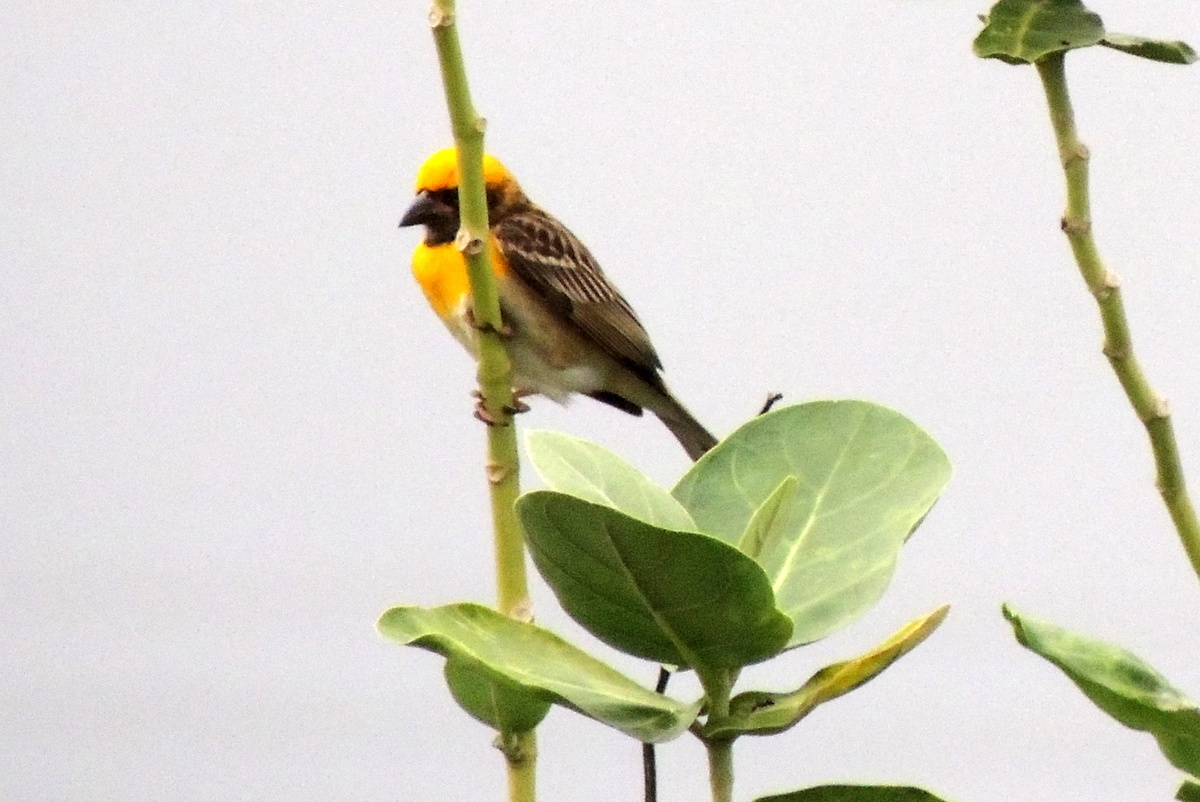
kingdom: Animalia
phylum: Chordata
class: Aves
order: Passeriformes
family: Ploceidae
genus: Ploceus
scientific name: Ploceus philippinus
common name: Baya weaver
